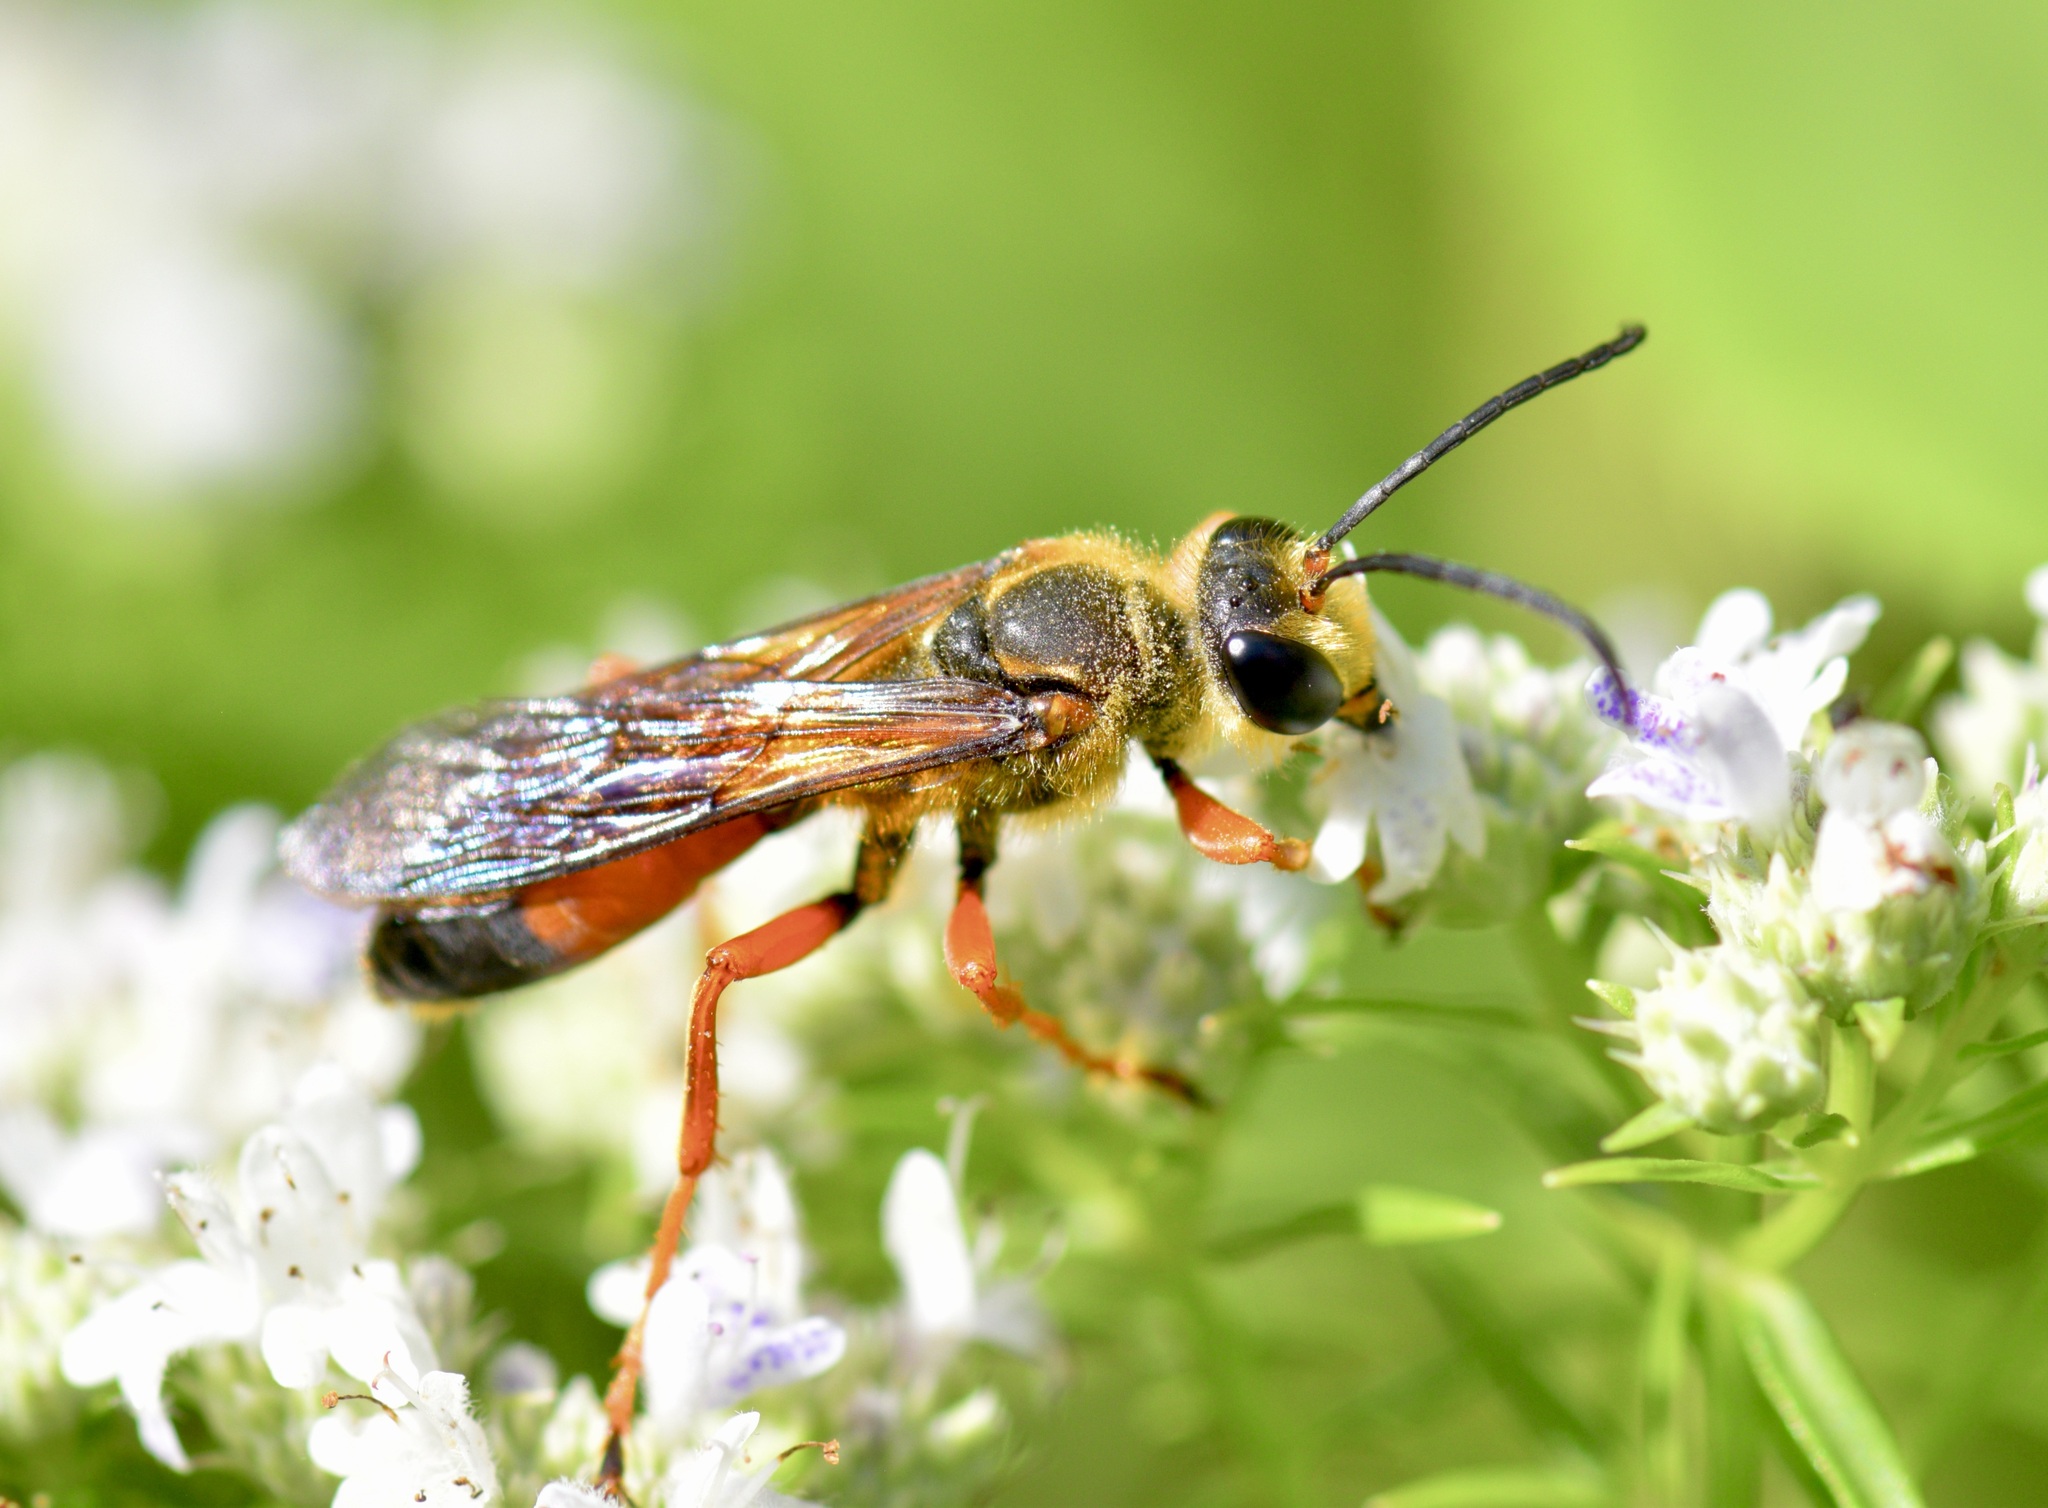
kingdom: Animalia
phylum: Arthropoda
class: Insecta
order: Hymenoptera
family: Sphecidae
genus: Sphex
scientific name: Sphex ichneumoneus
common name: Great golden digger wasp
